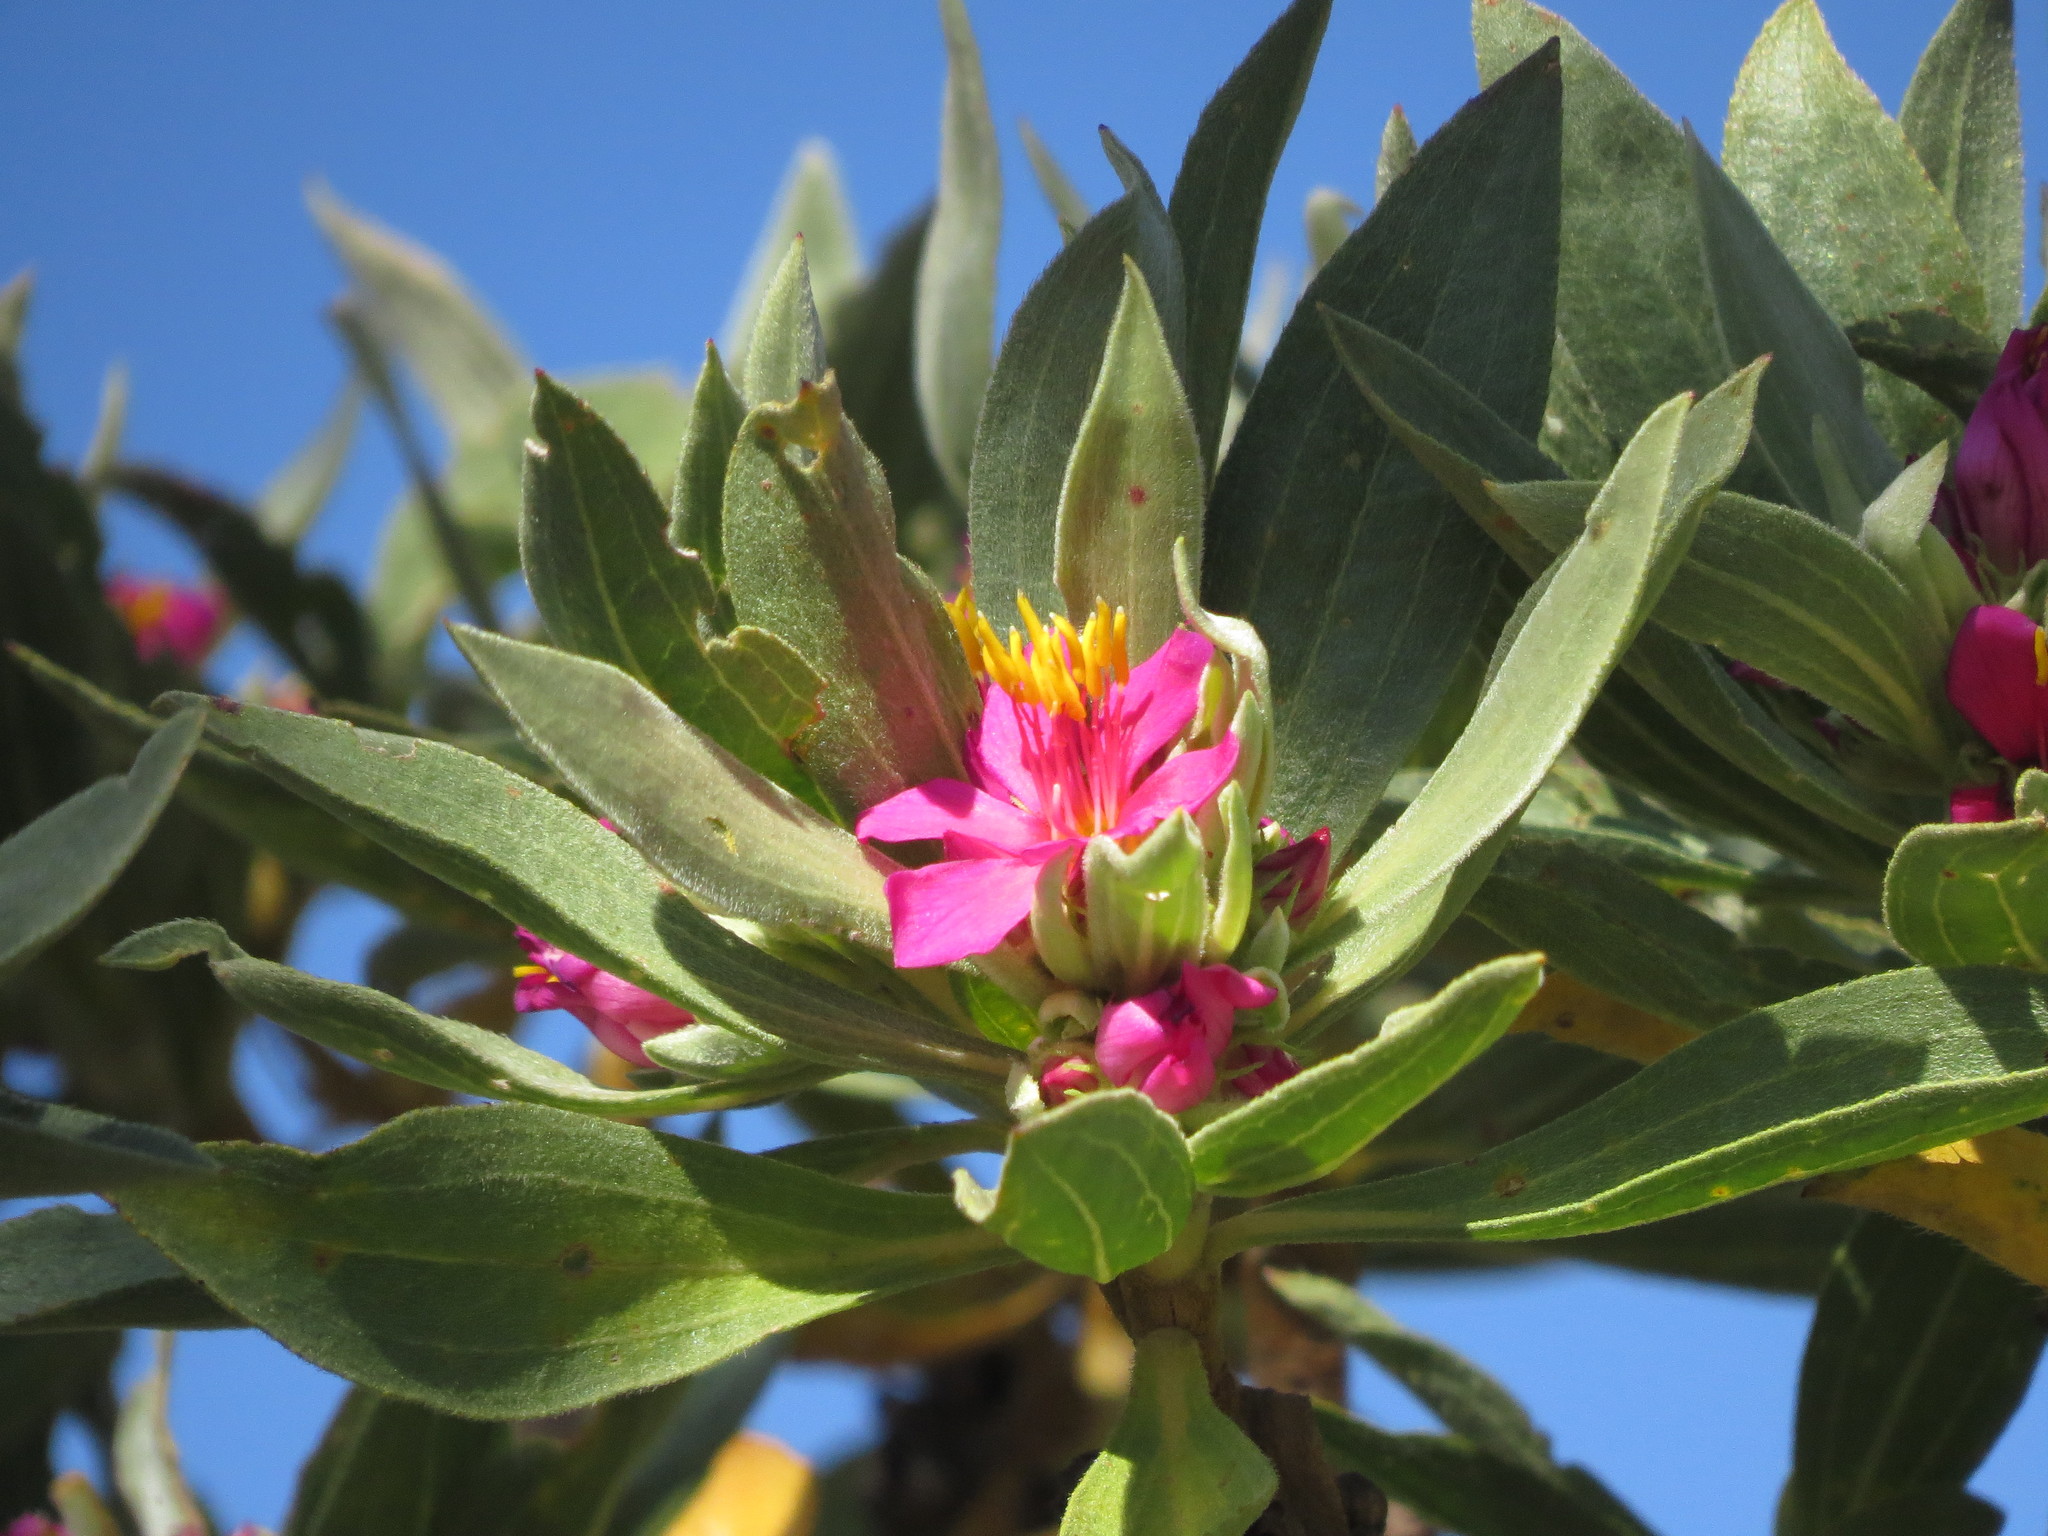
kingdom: Plantae
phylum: Tracheophyta
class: Magnoliopsida
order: Myrtales
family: Melastomataceae
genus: Microlicia
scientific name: Microlicia suberosa
